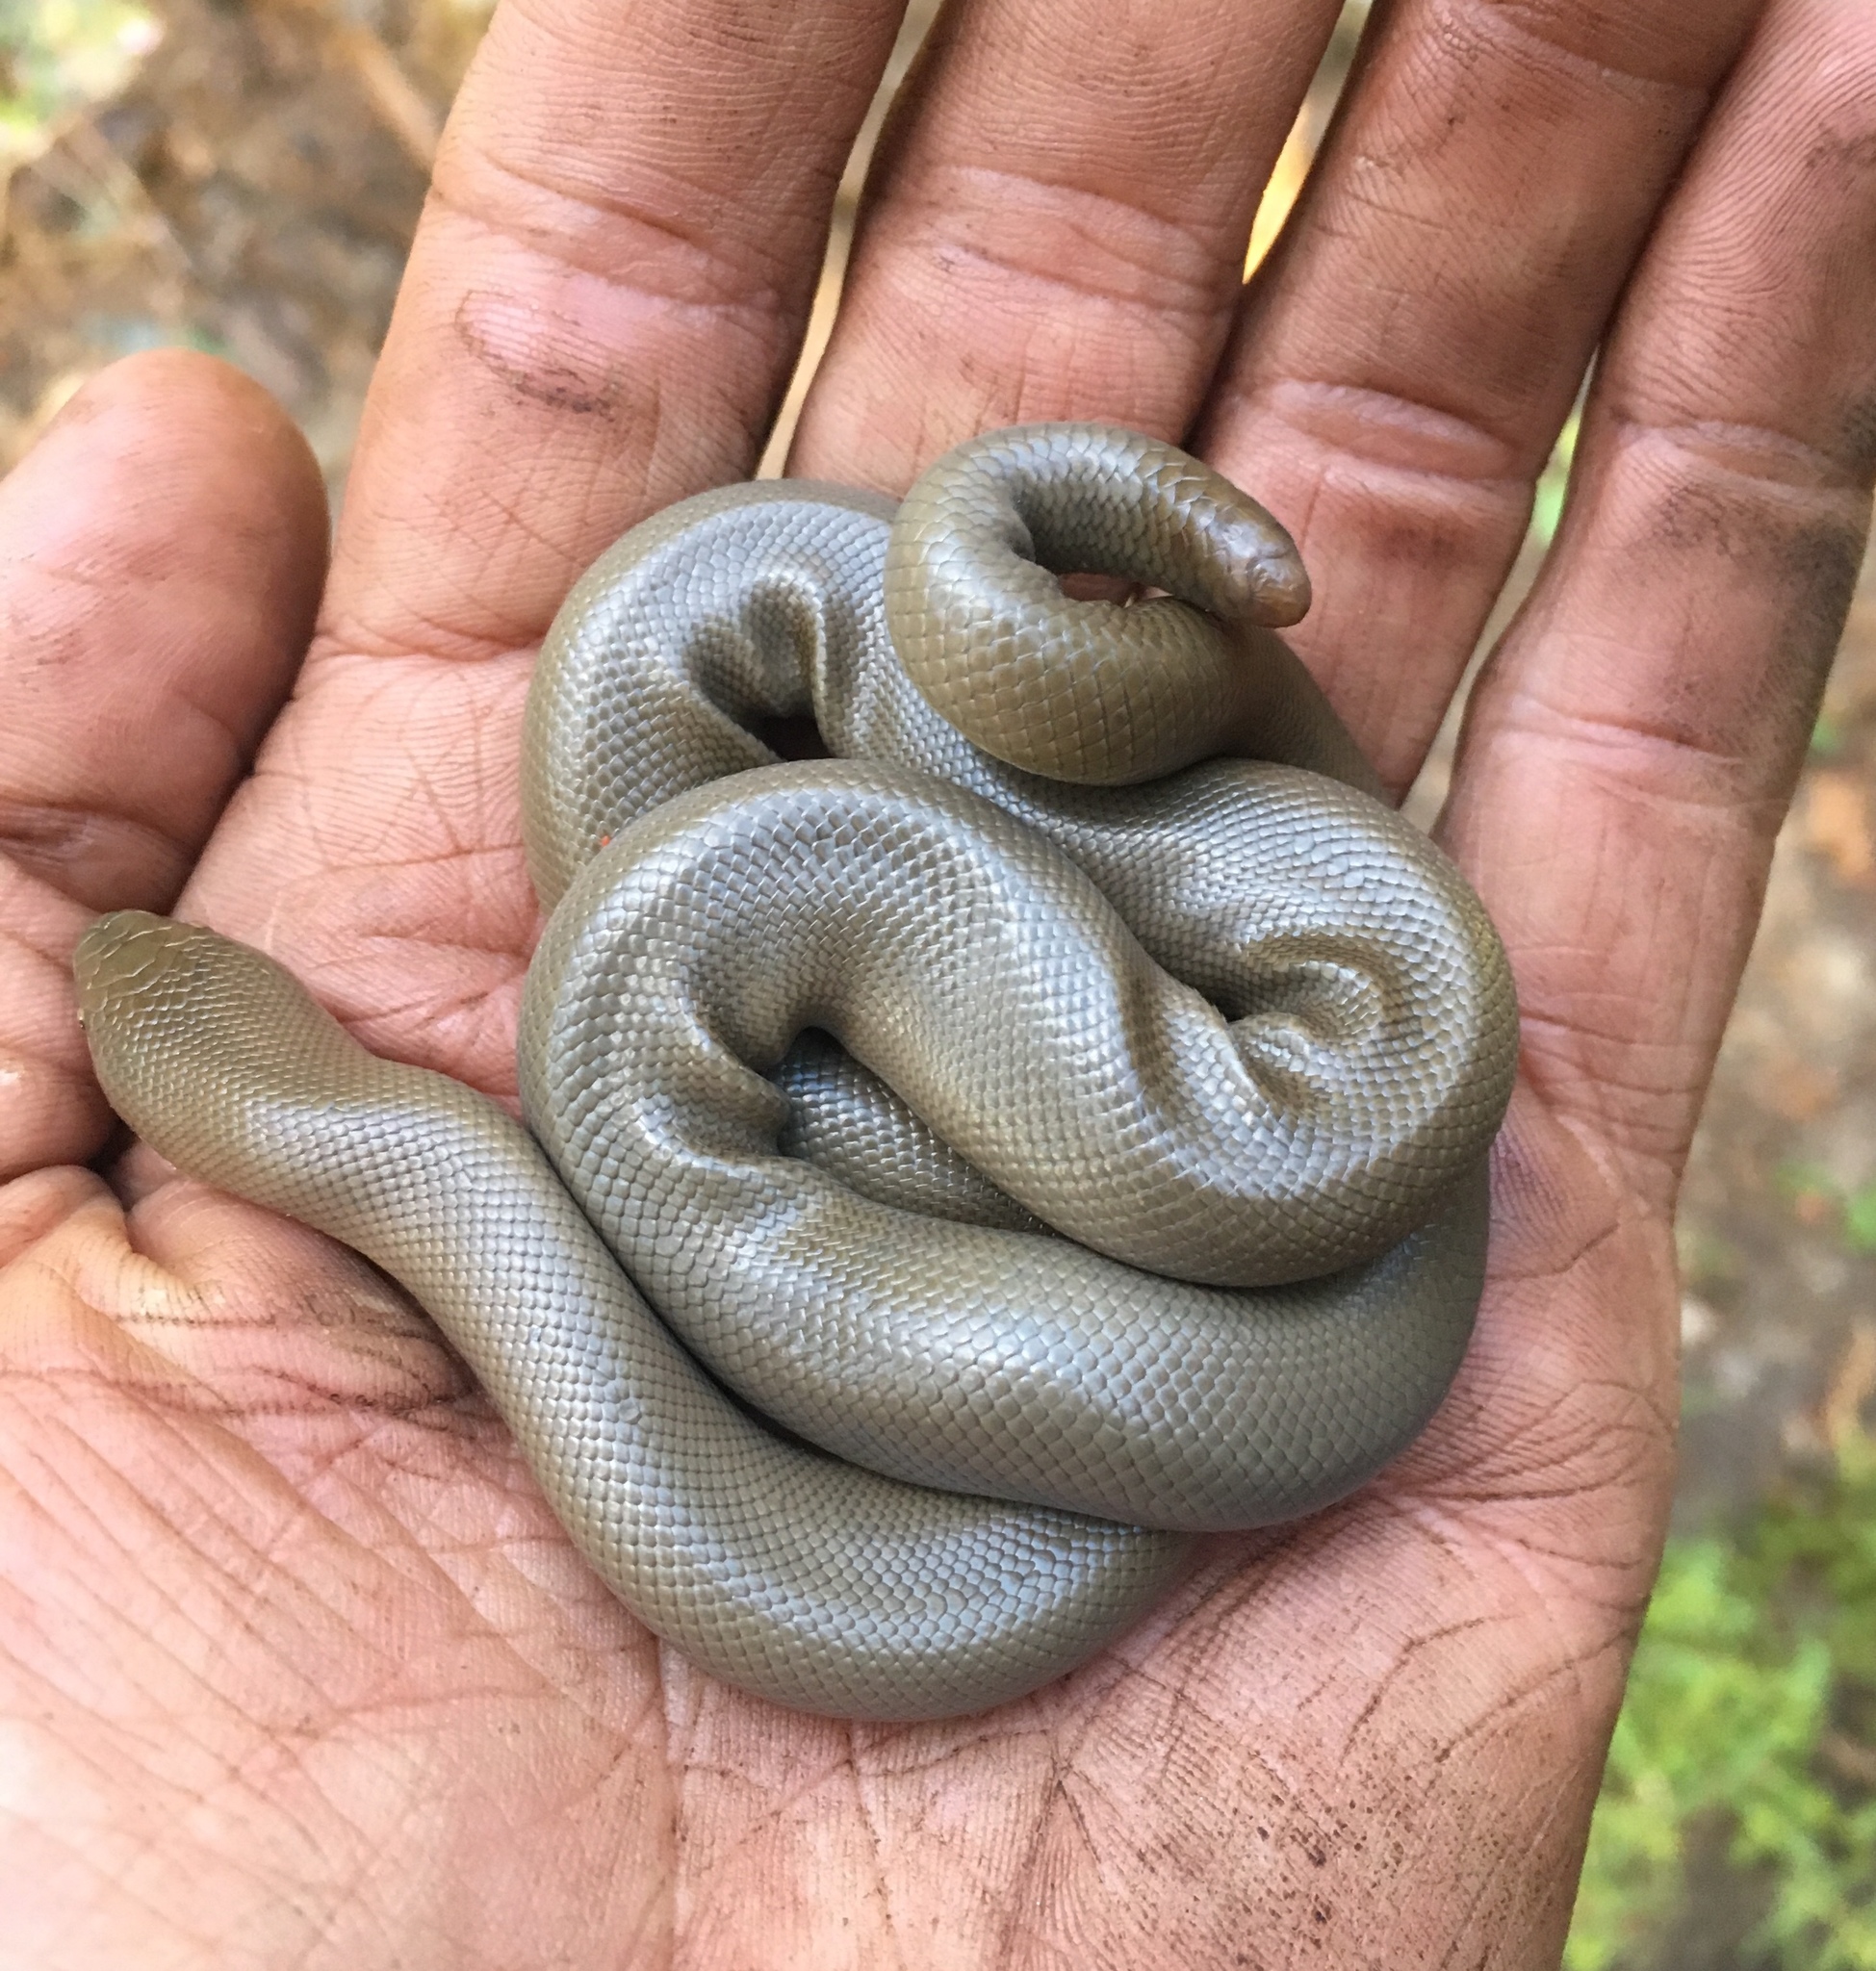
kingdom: Animalia
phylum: Chordata
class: Squamata
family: Boidae
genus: Charina
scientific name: Charina bottae
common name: Northern rubber boa
